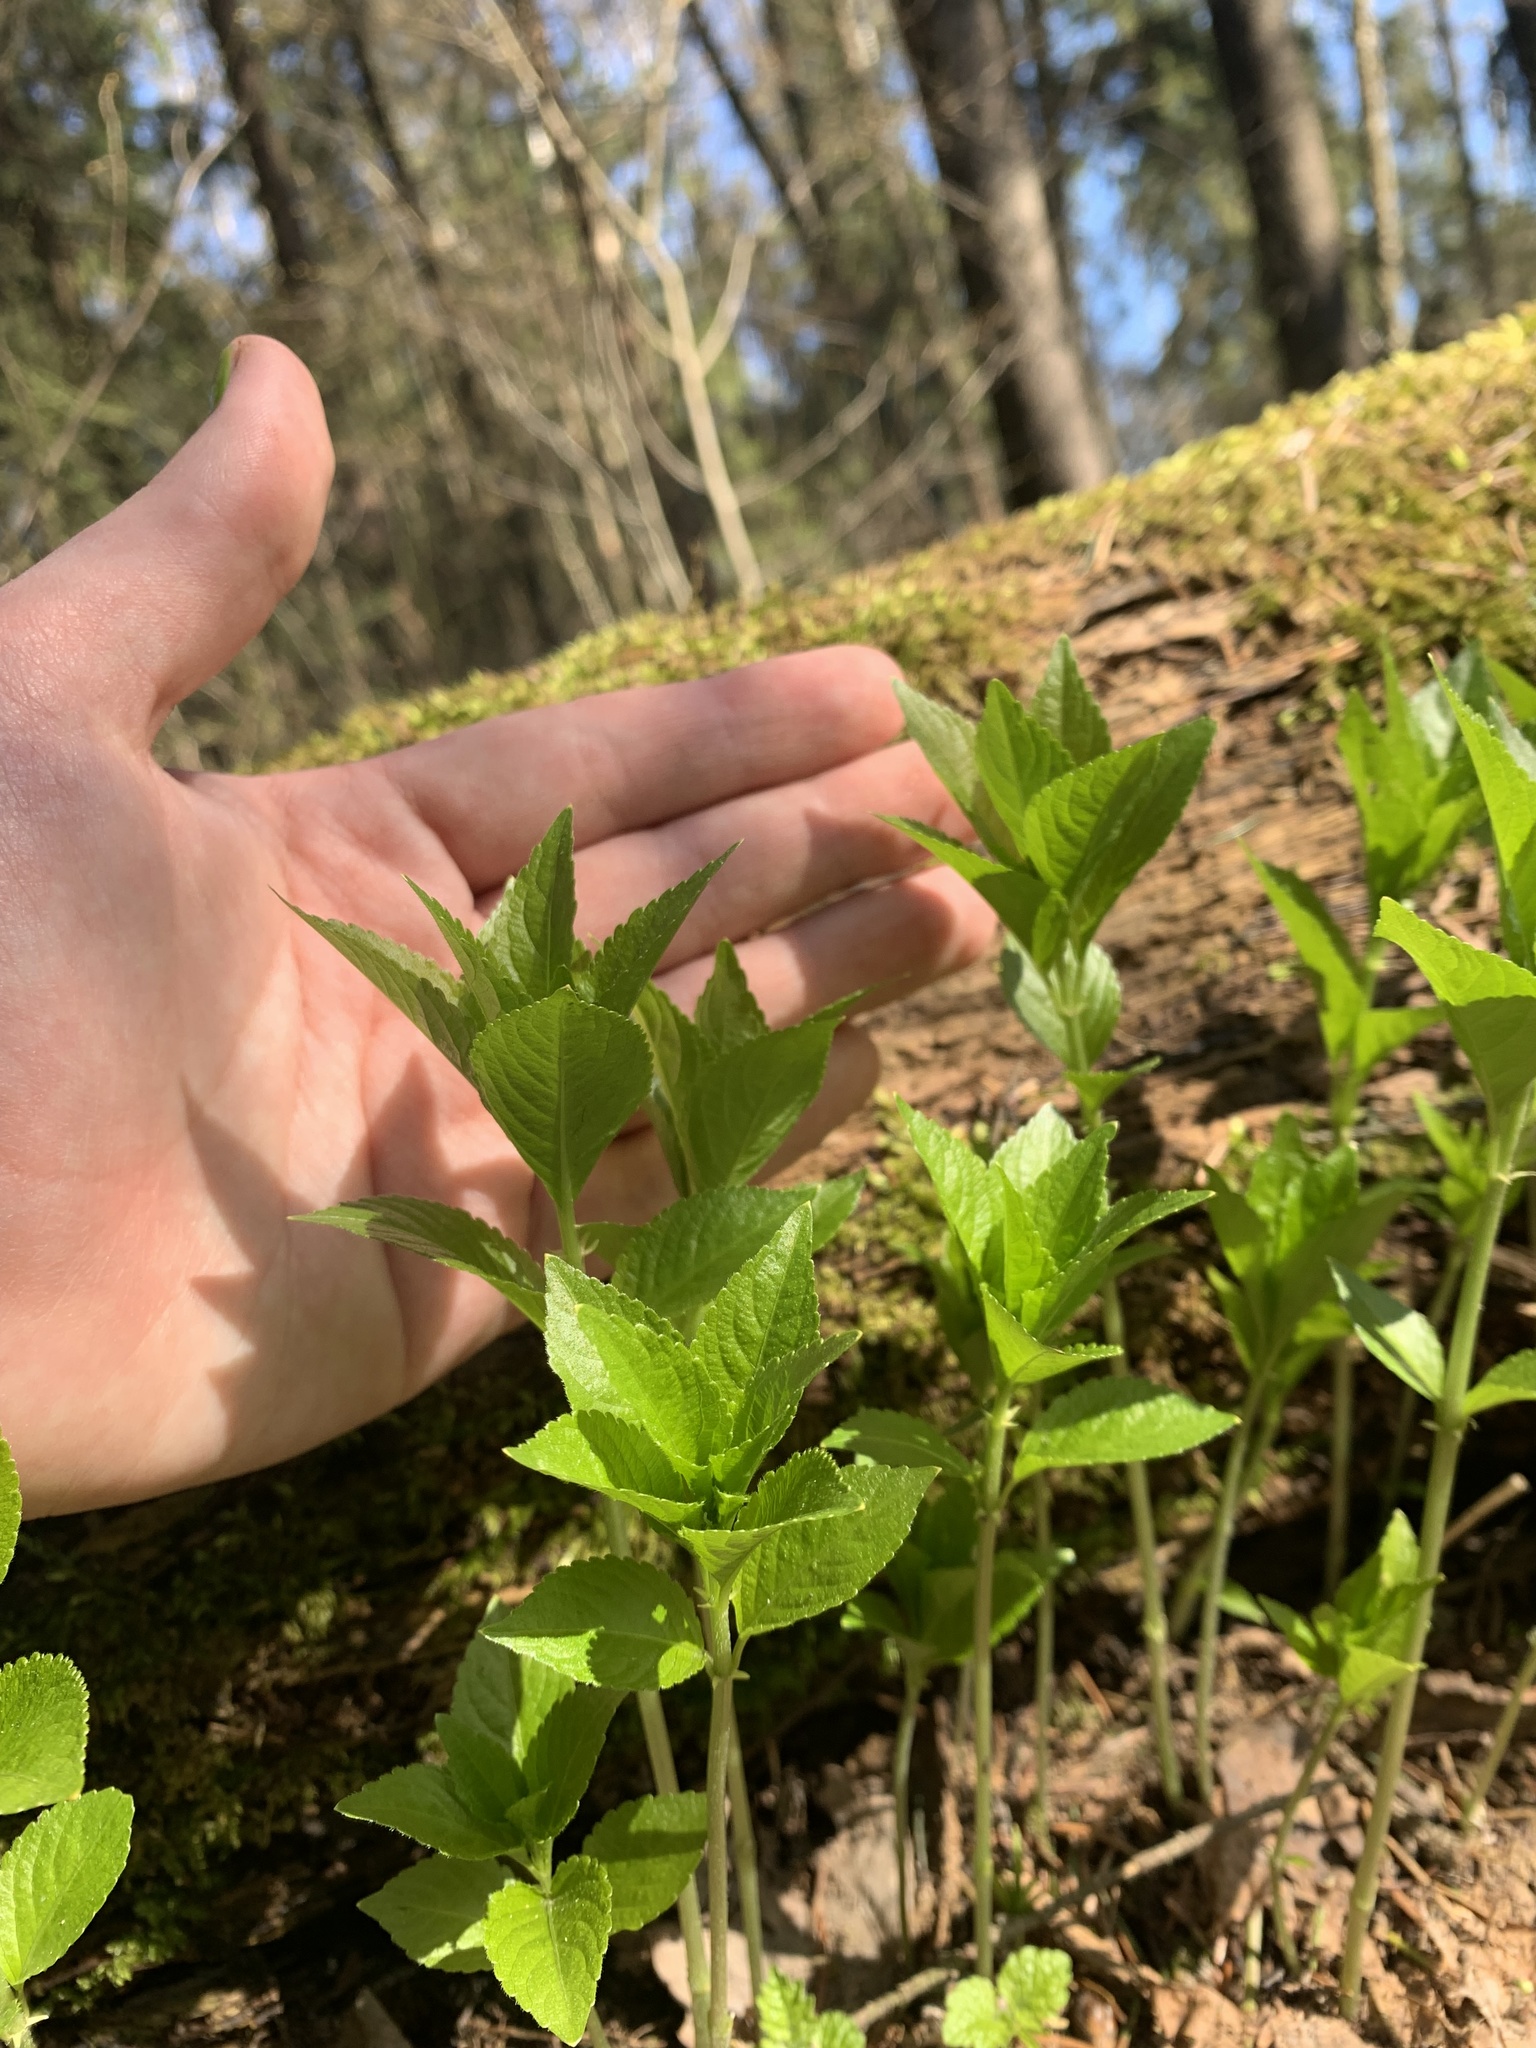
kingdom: Plantae
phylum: Tracheophyta
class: Magnoliopsida
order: Malpighiales
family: Euphorbiaceae
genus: Mercurialis
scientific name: Mercurialis perennis
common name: Dog mercury
